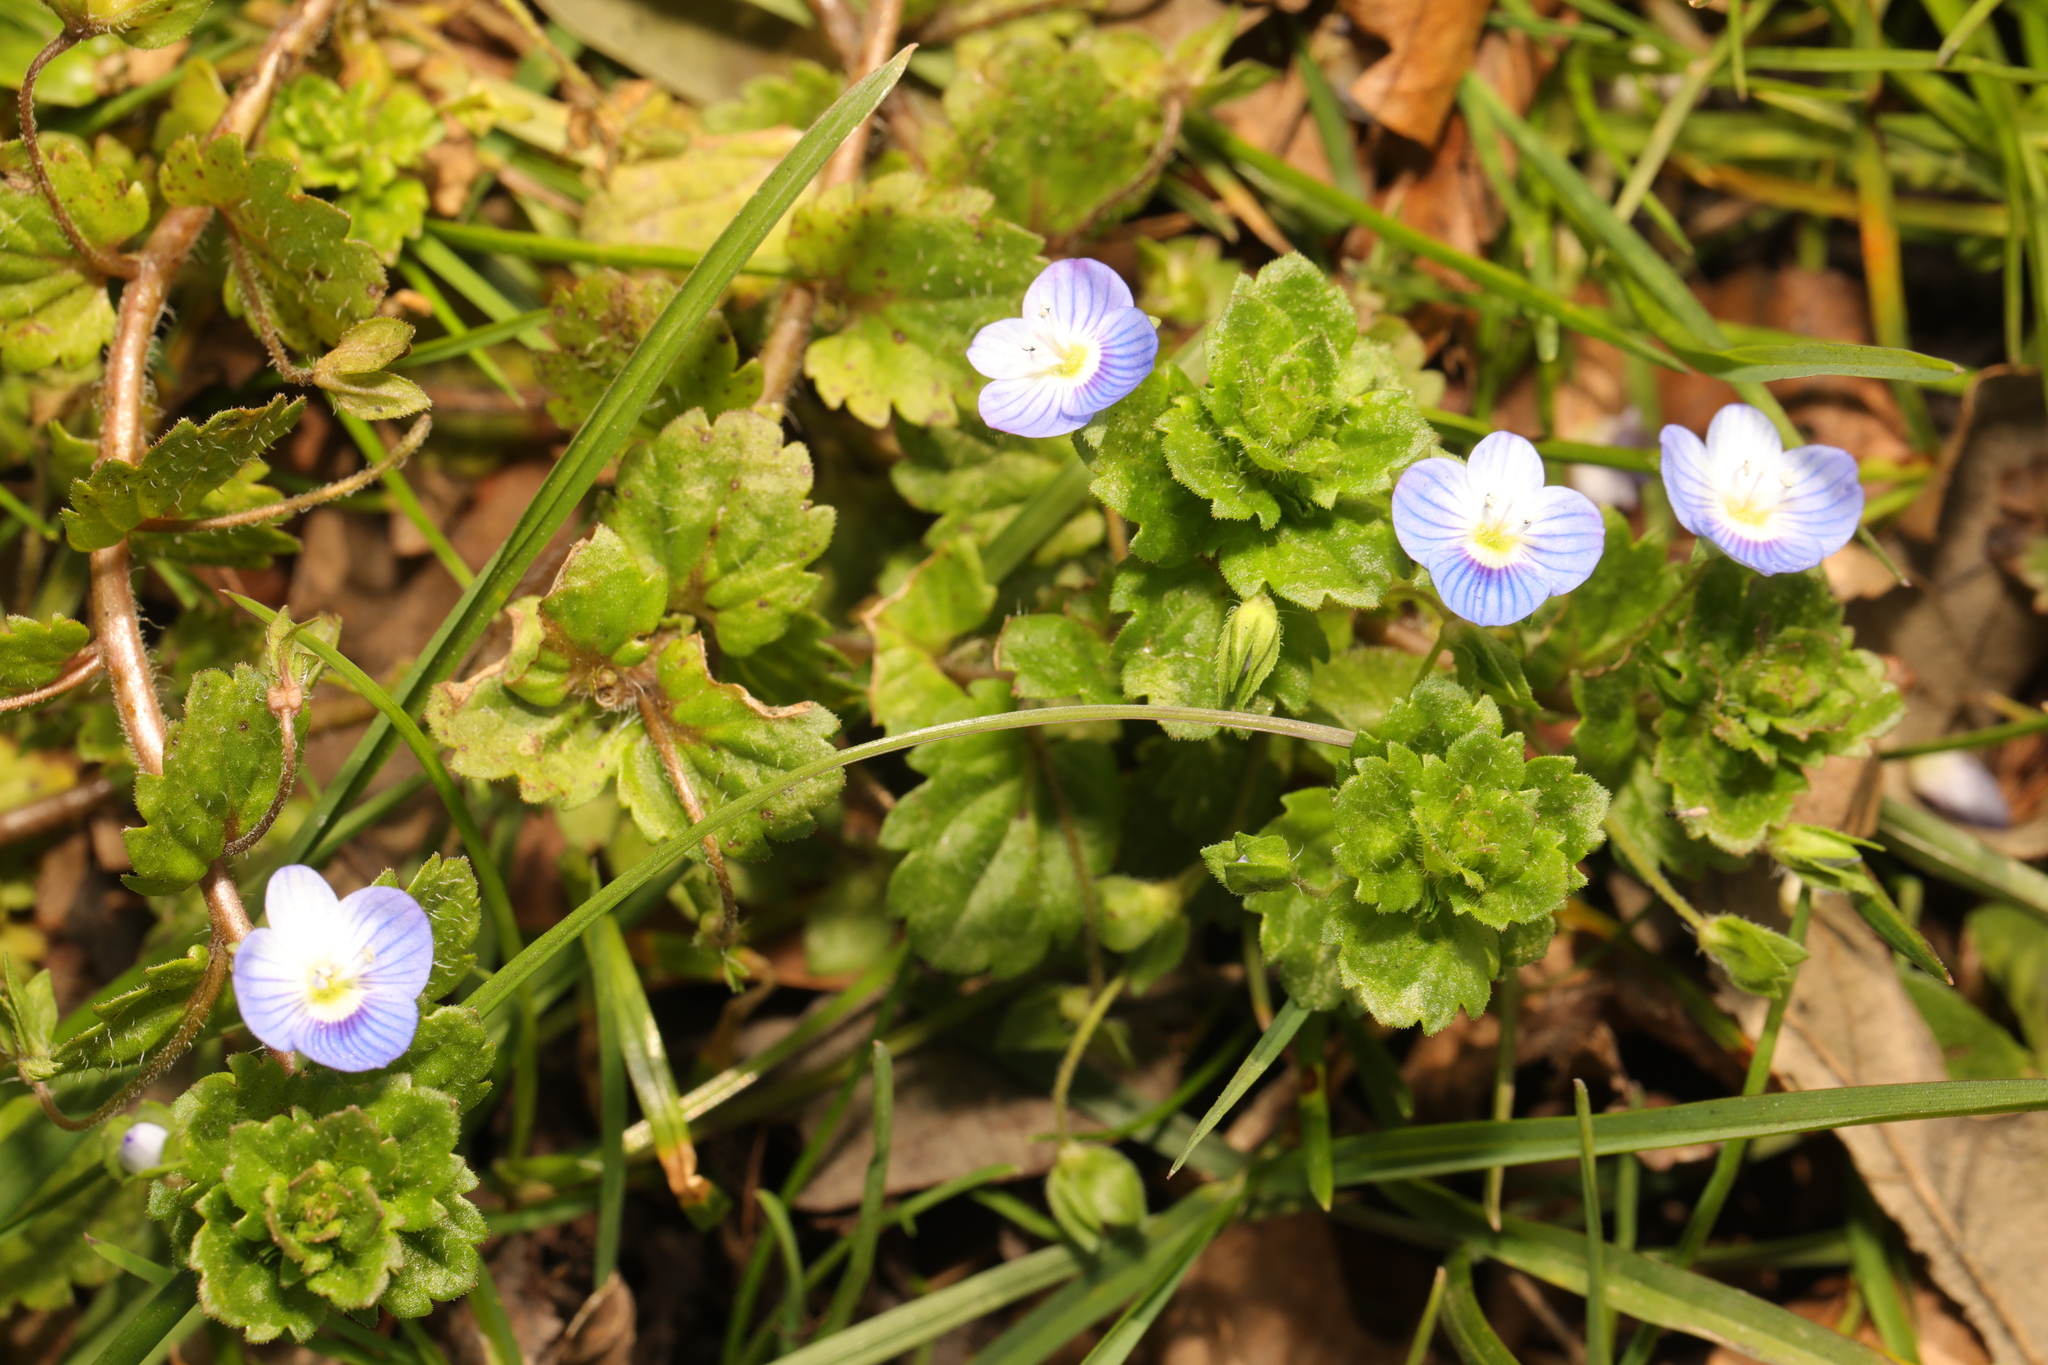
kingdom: Plantae
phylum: Tracheophyta
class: Magnoliopsida
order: Lamiales
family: Plantaginaceae
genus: Veronica
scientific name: Veronica persica
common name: Common field-speedwell
